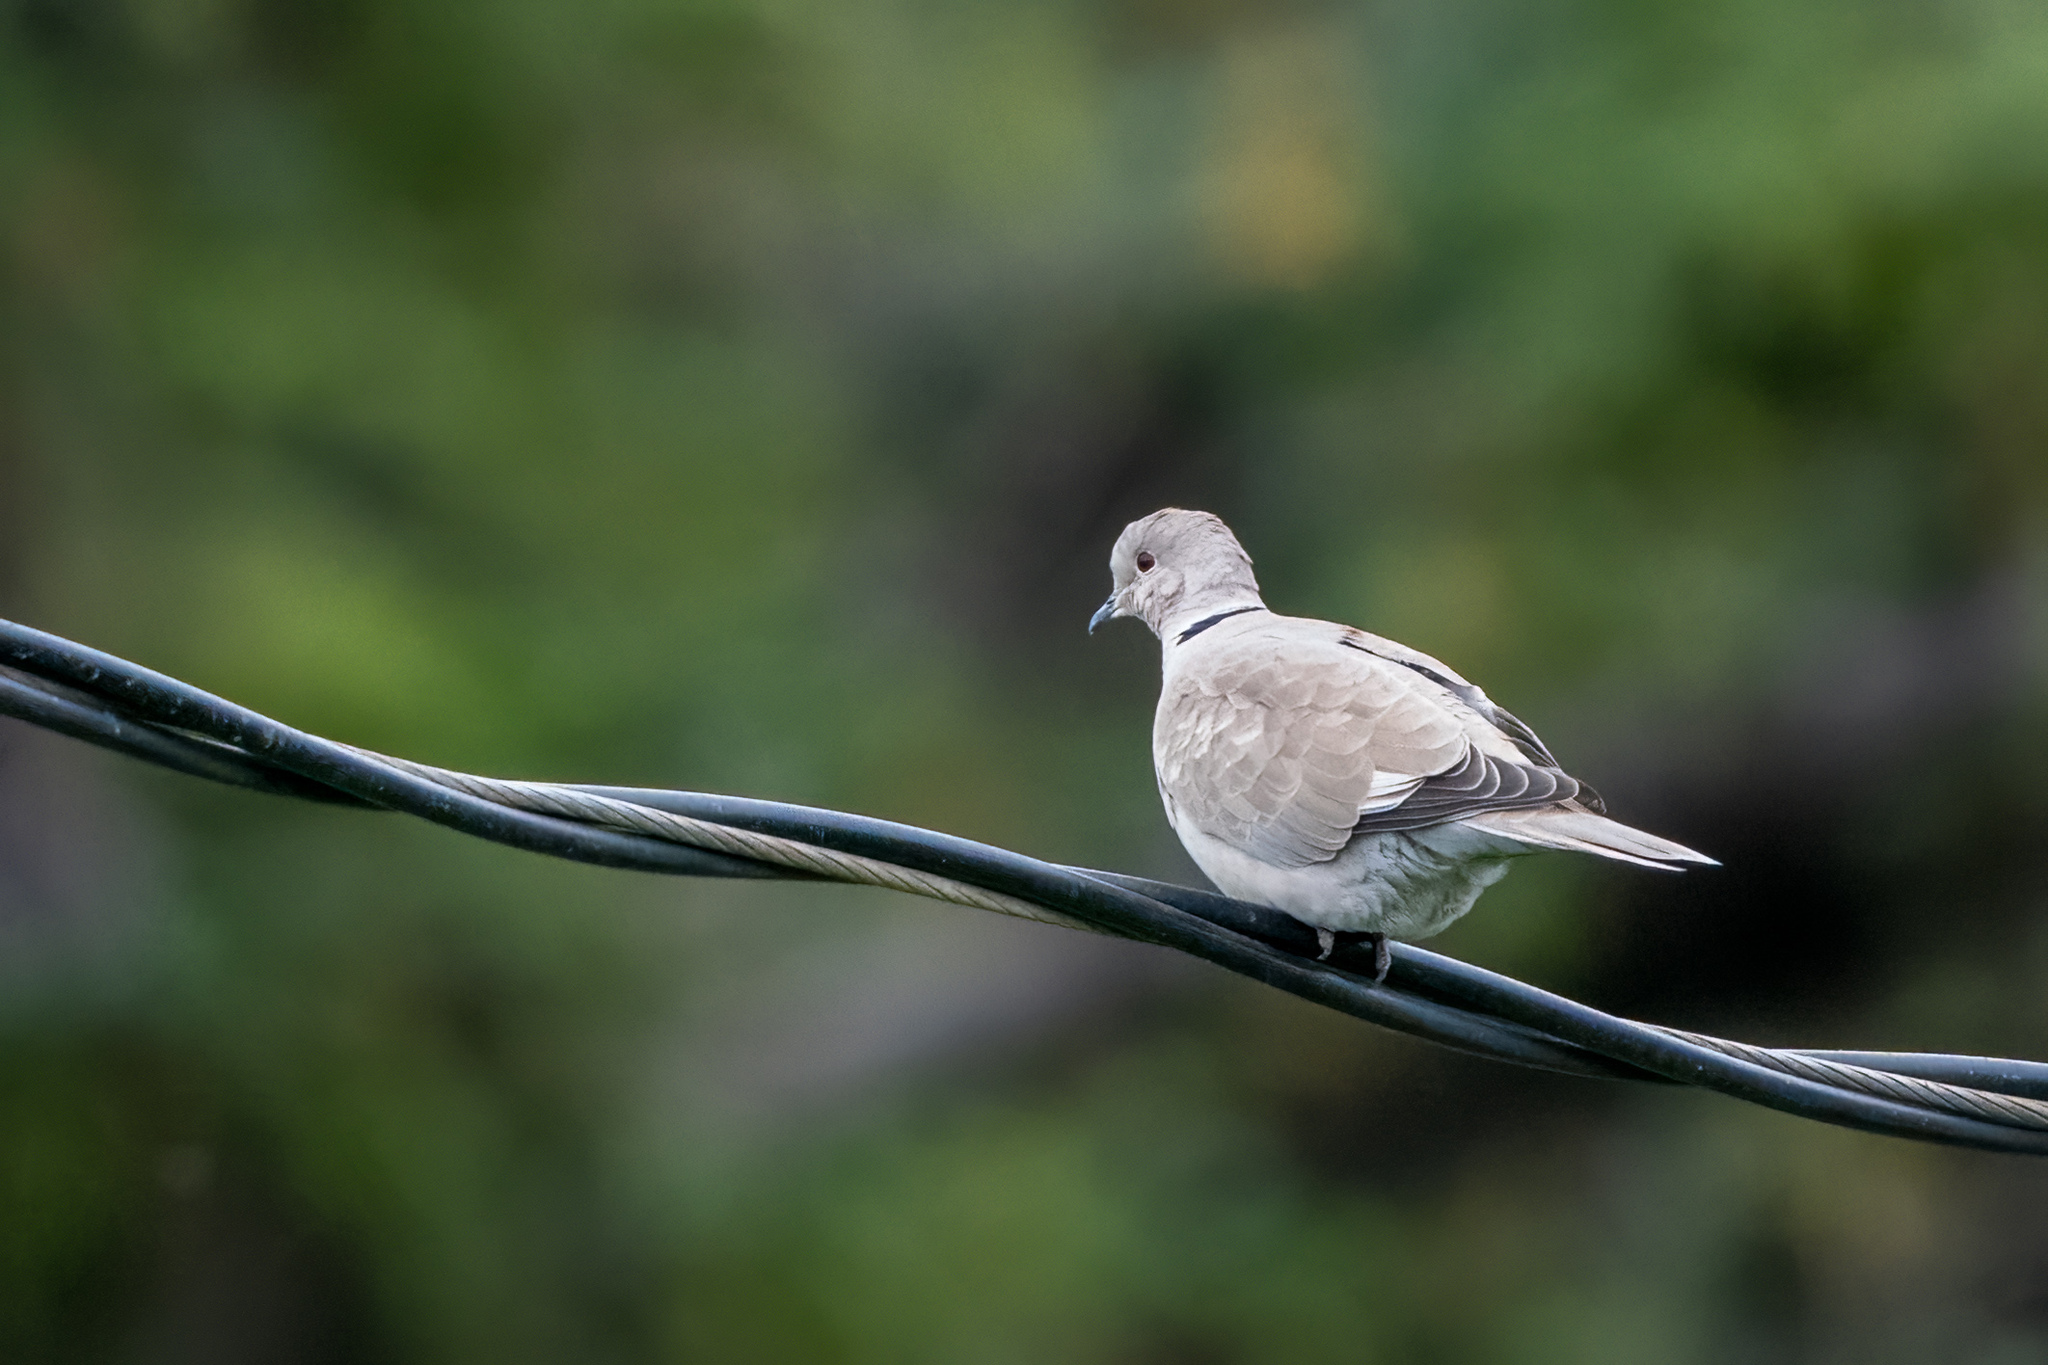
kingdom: Animalia
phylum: Chordata
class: Aves
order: Columbiformes
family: Columbidae
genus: Streptopelia
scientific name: Streptopelia decaocto
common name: Eurasian collared dove
